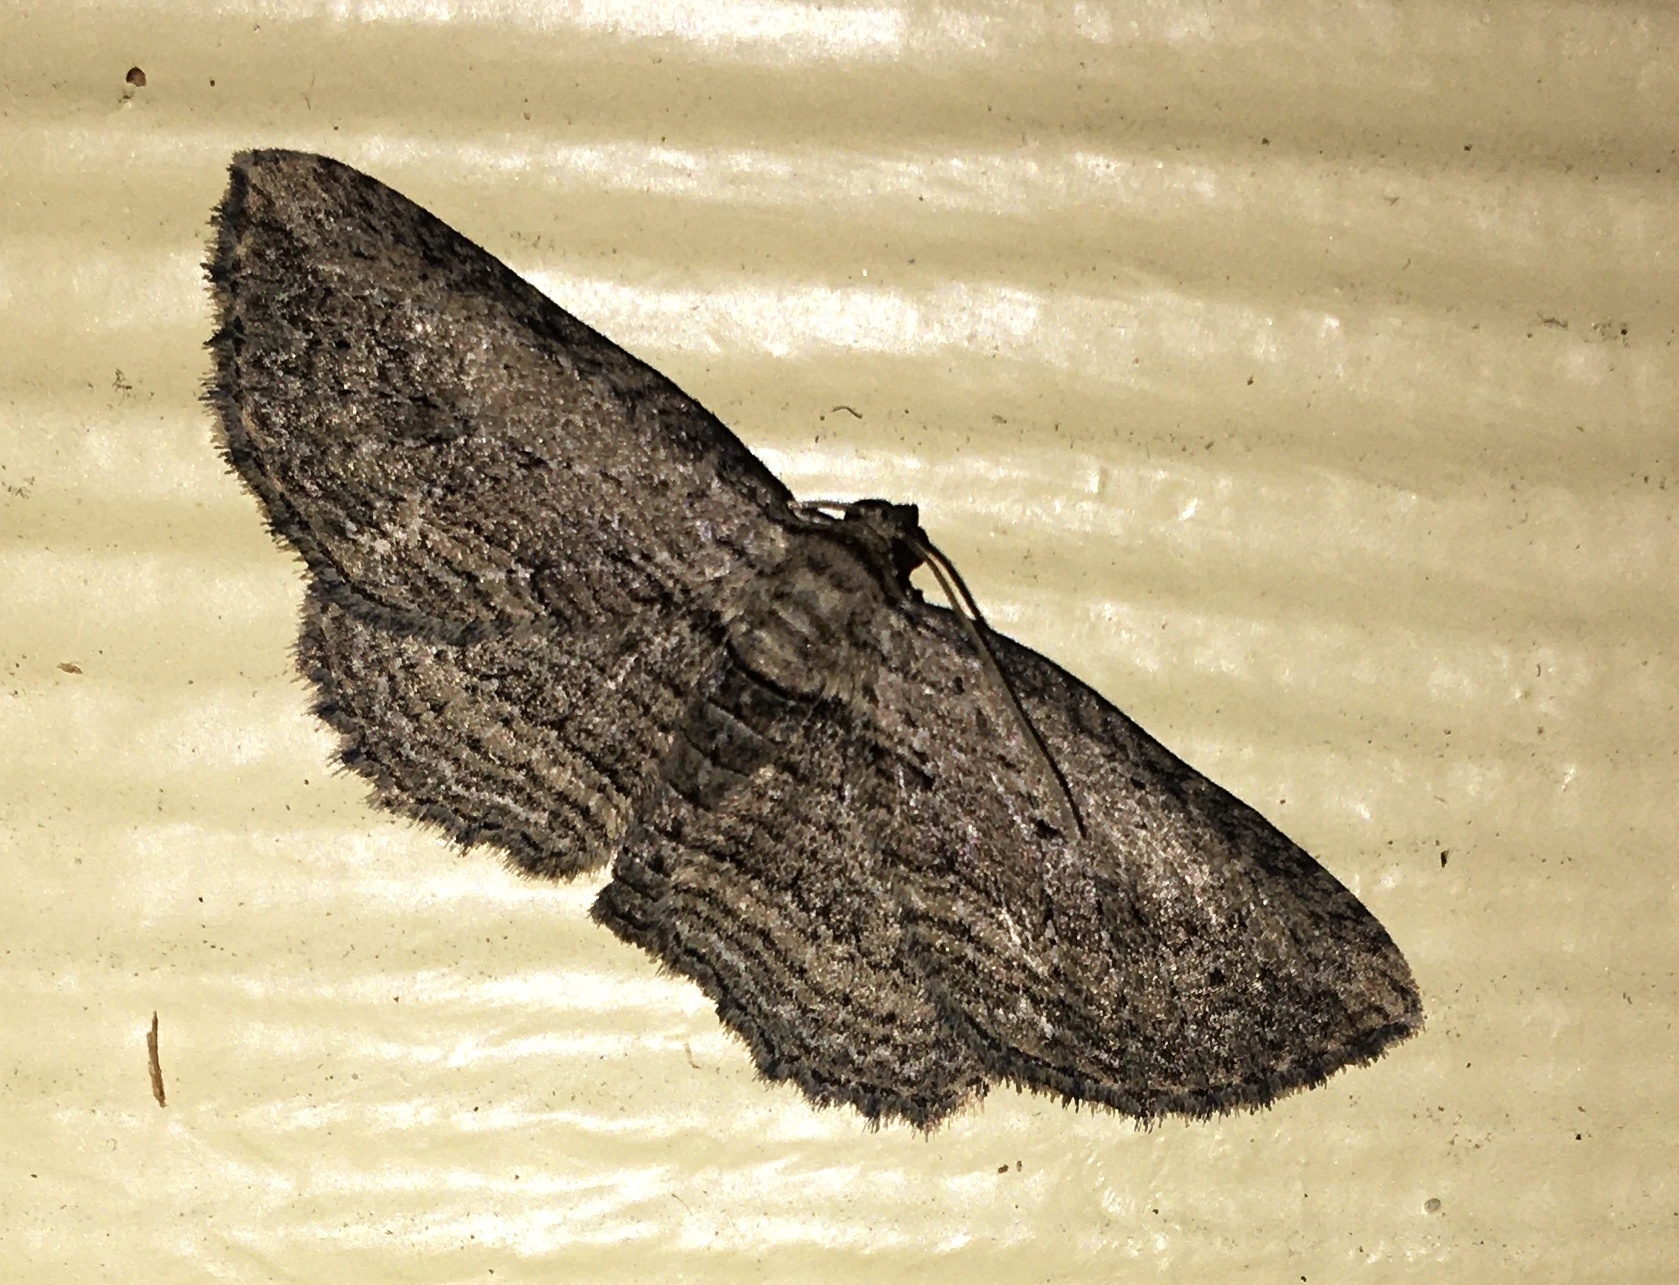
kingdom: Animalia
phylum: Arthropoda
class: Insecta
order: Lepidoptera
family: Geometridae
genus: Horisme
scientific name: Horisme intestinata
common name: Brown bark carpet
